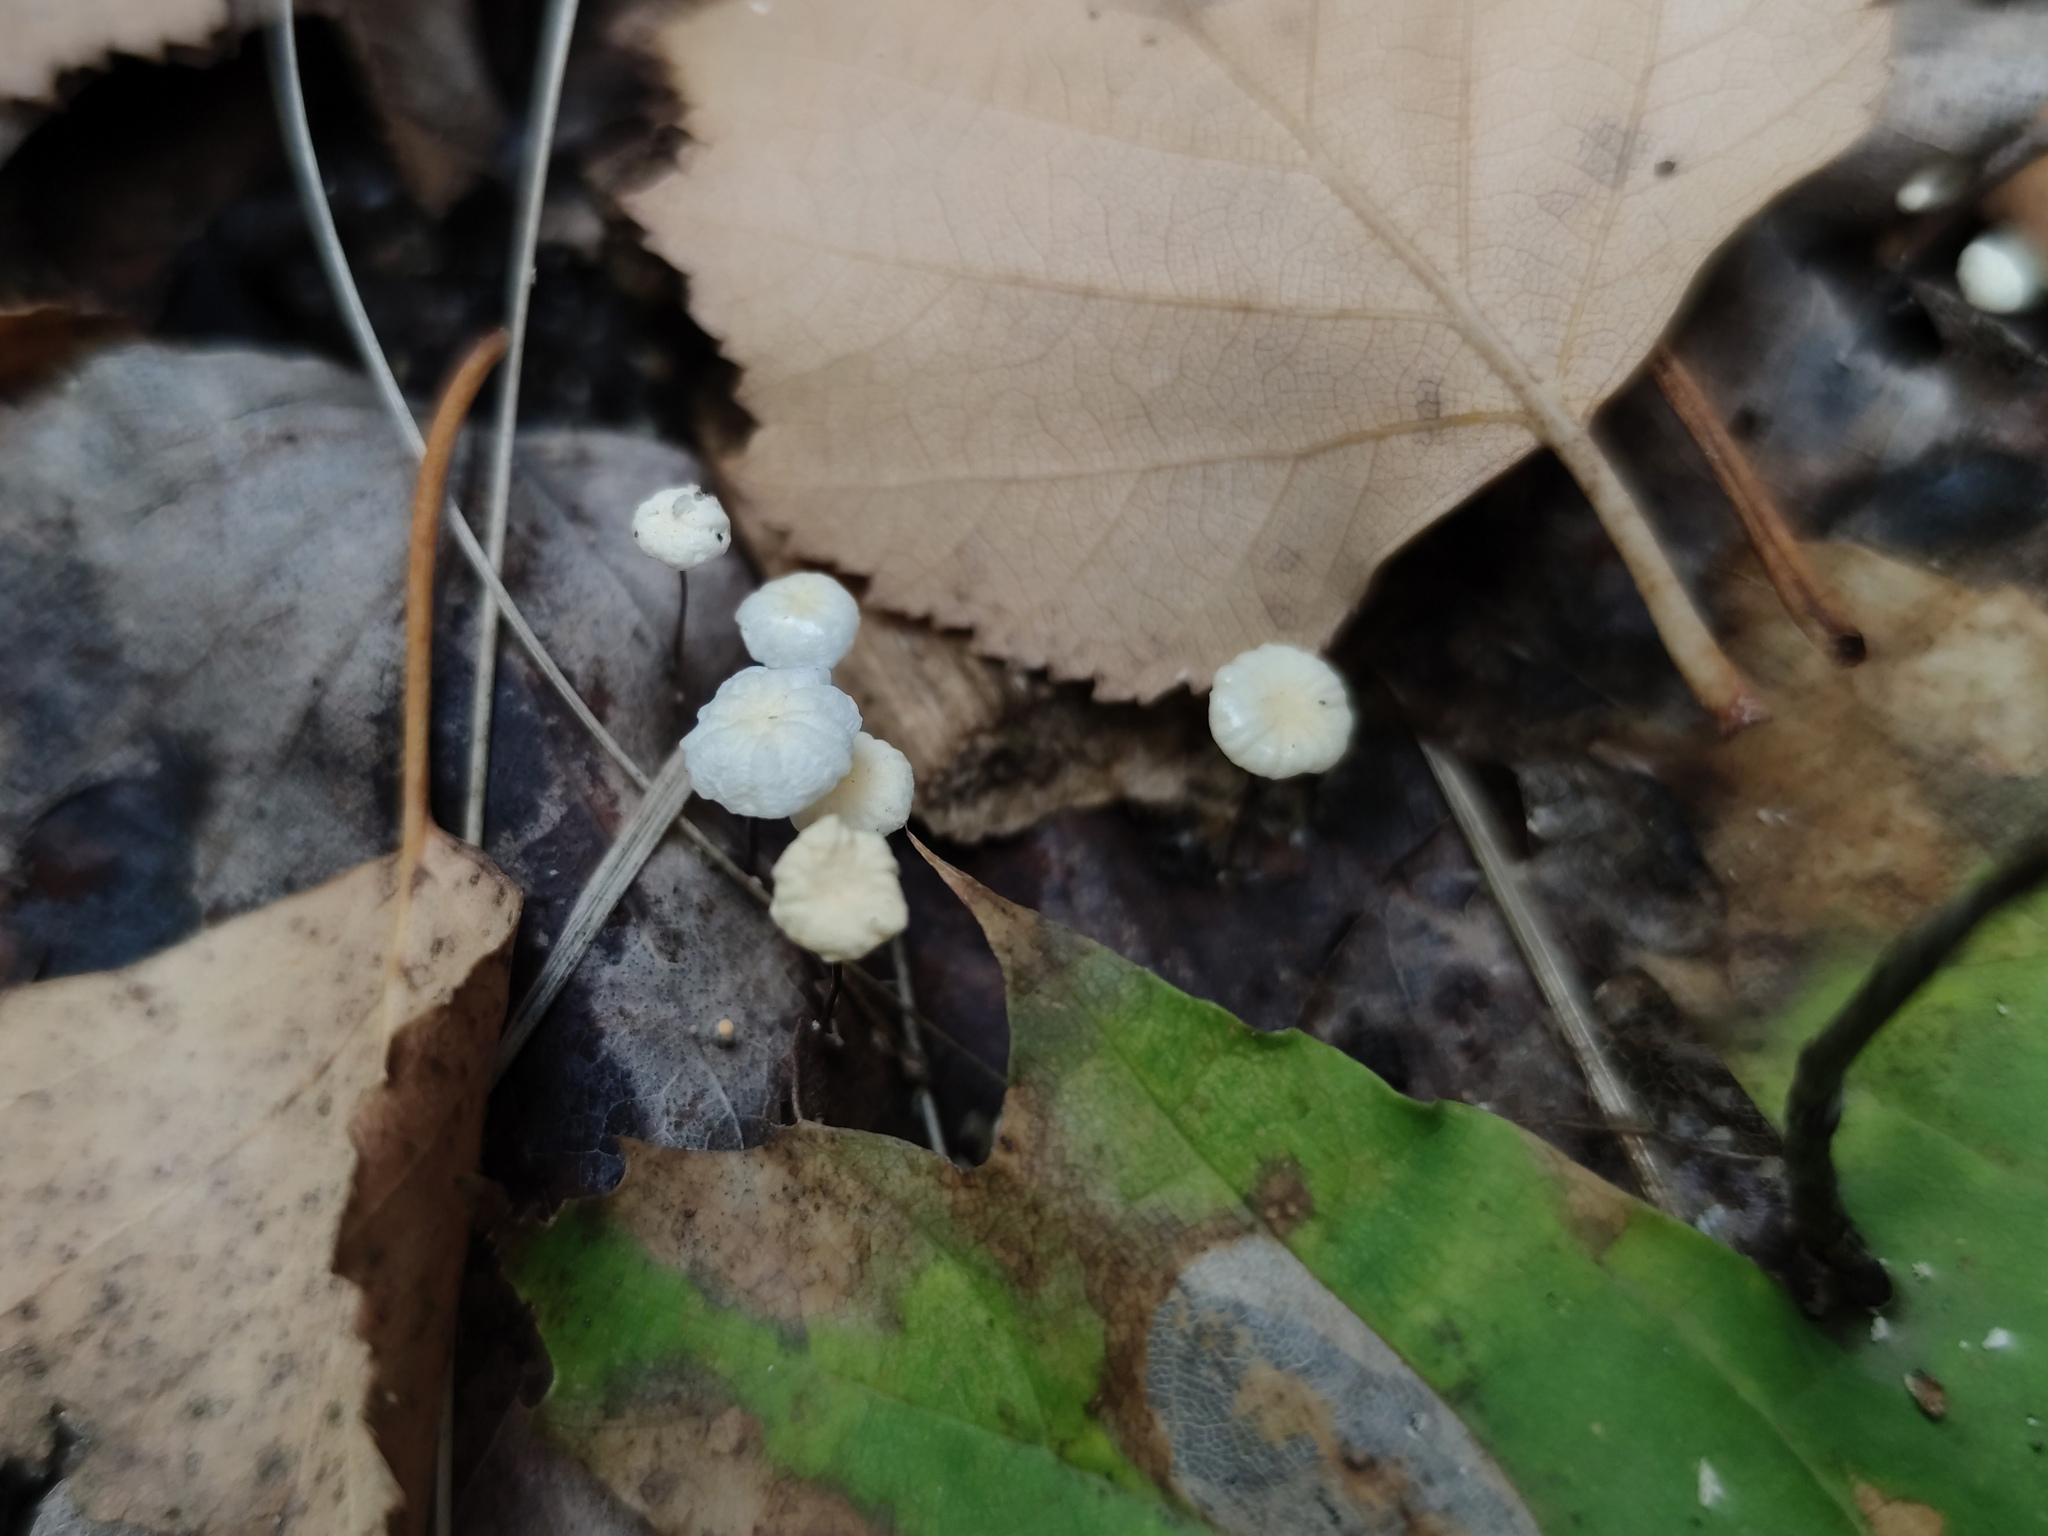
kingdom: Fungi
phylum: Basidiomycota
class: Agaricomycetes
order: Agaricales
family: Physalacriaceae
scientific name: Physalacriaceae
